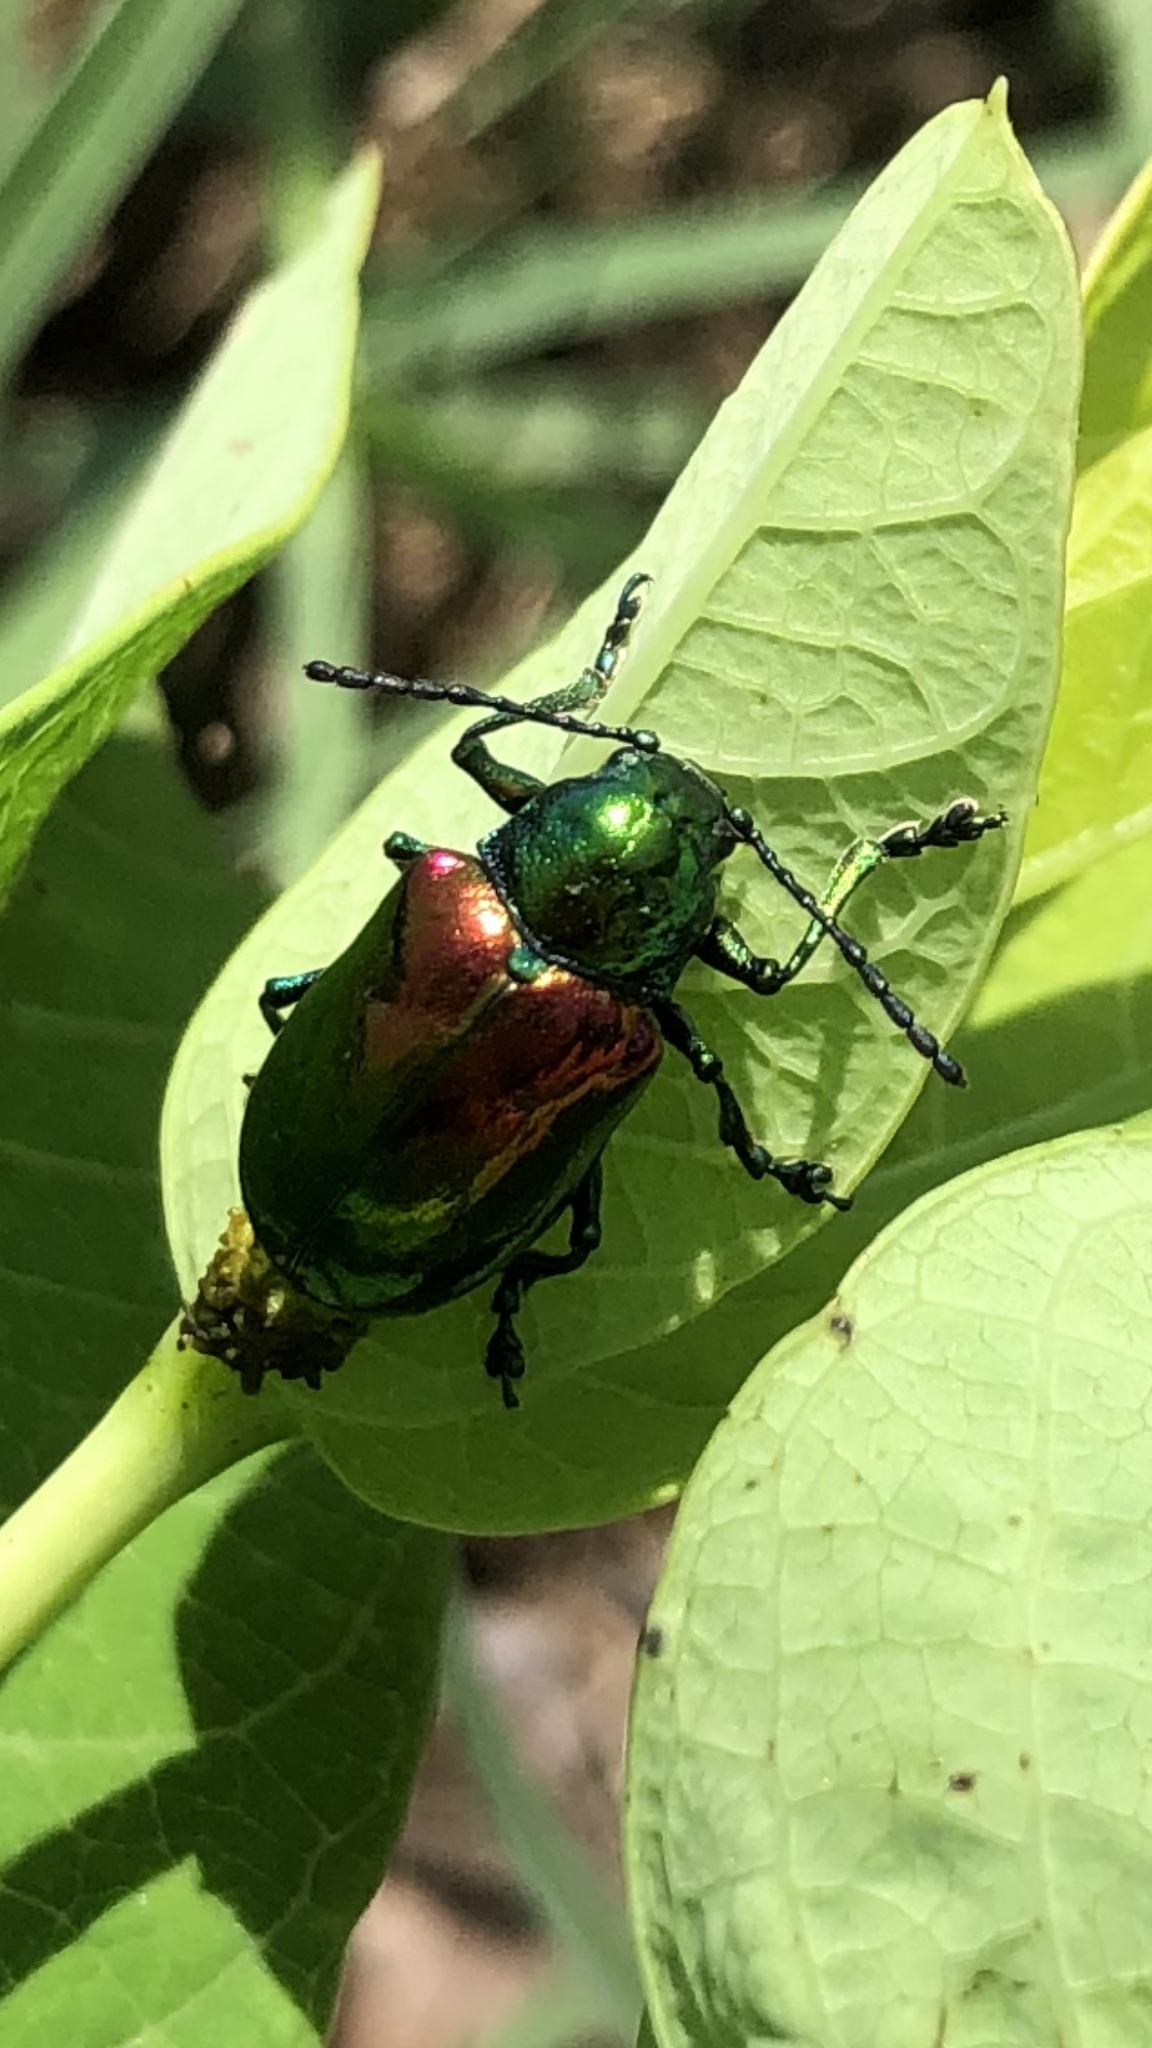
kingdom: Animalia
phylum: Arthropoda
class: Insecta
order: Coleoptera
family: Chrysomelidae
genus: Chrysochus
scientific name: Chrysochus auratus
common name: Dogbane leaf beetle
